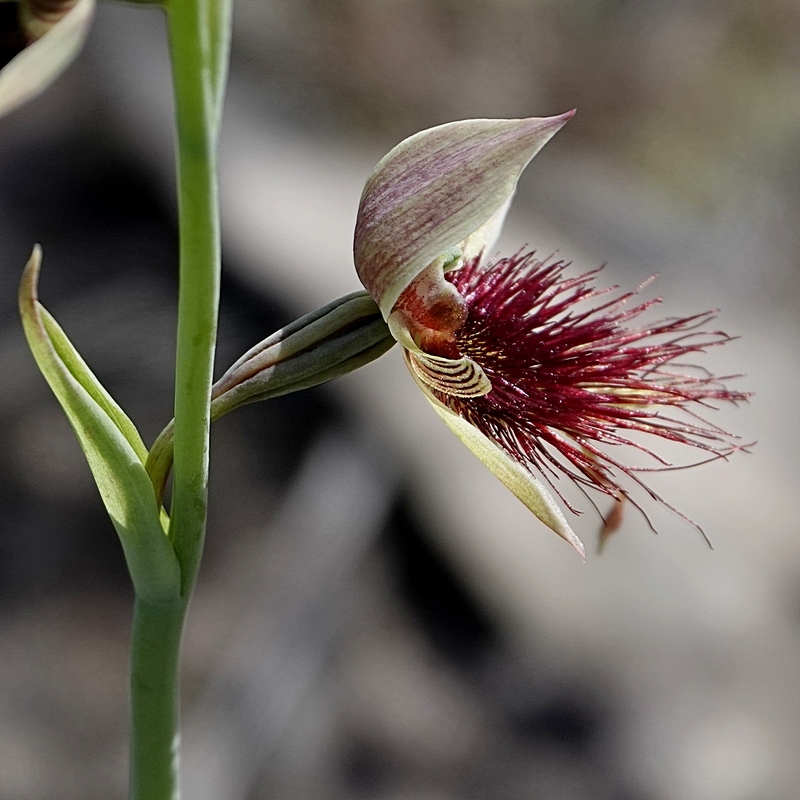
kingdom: Plantae
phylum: Tracheophyta
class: Liliopsida
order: Asparagales
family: Orchidaceae
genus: Calochilus
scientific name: Calochilus paludosus
